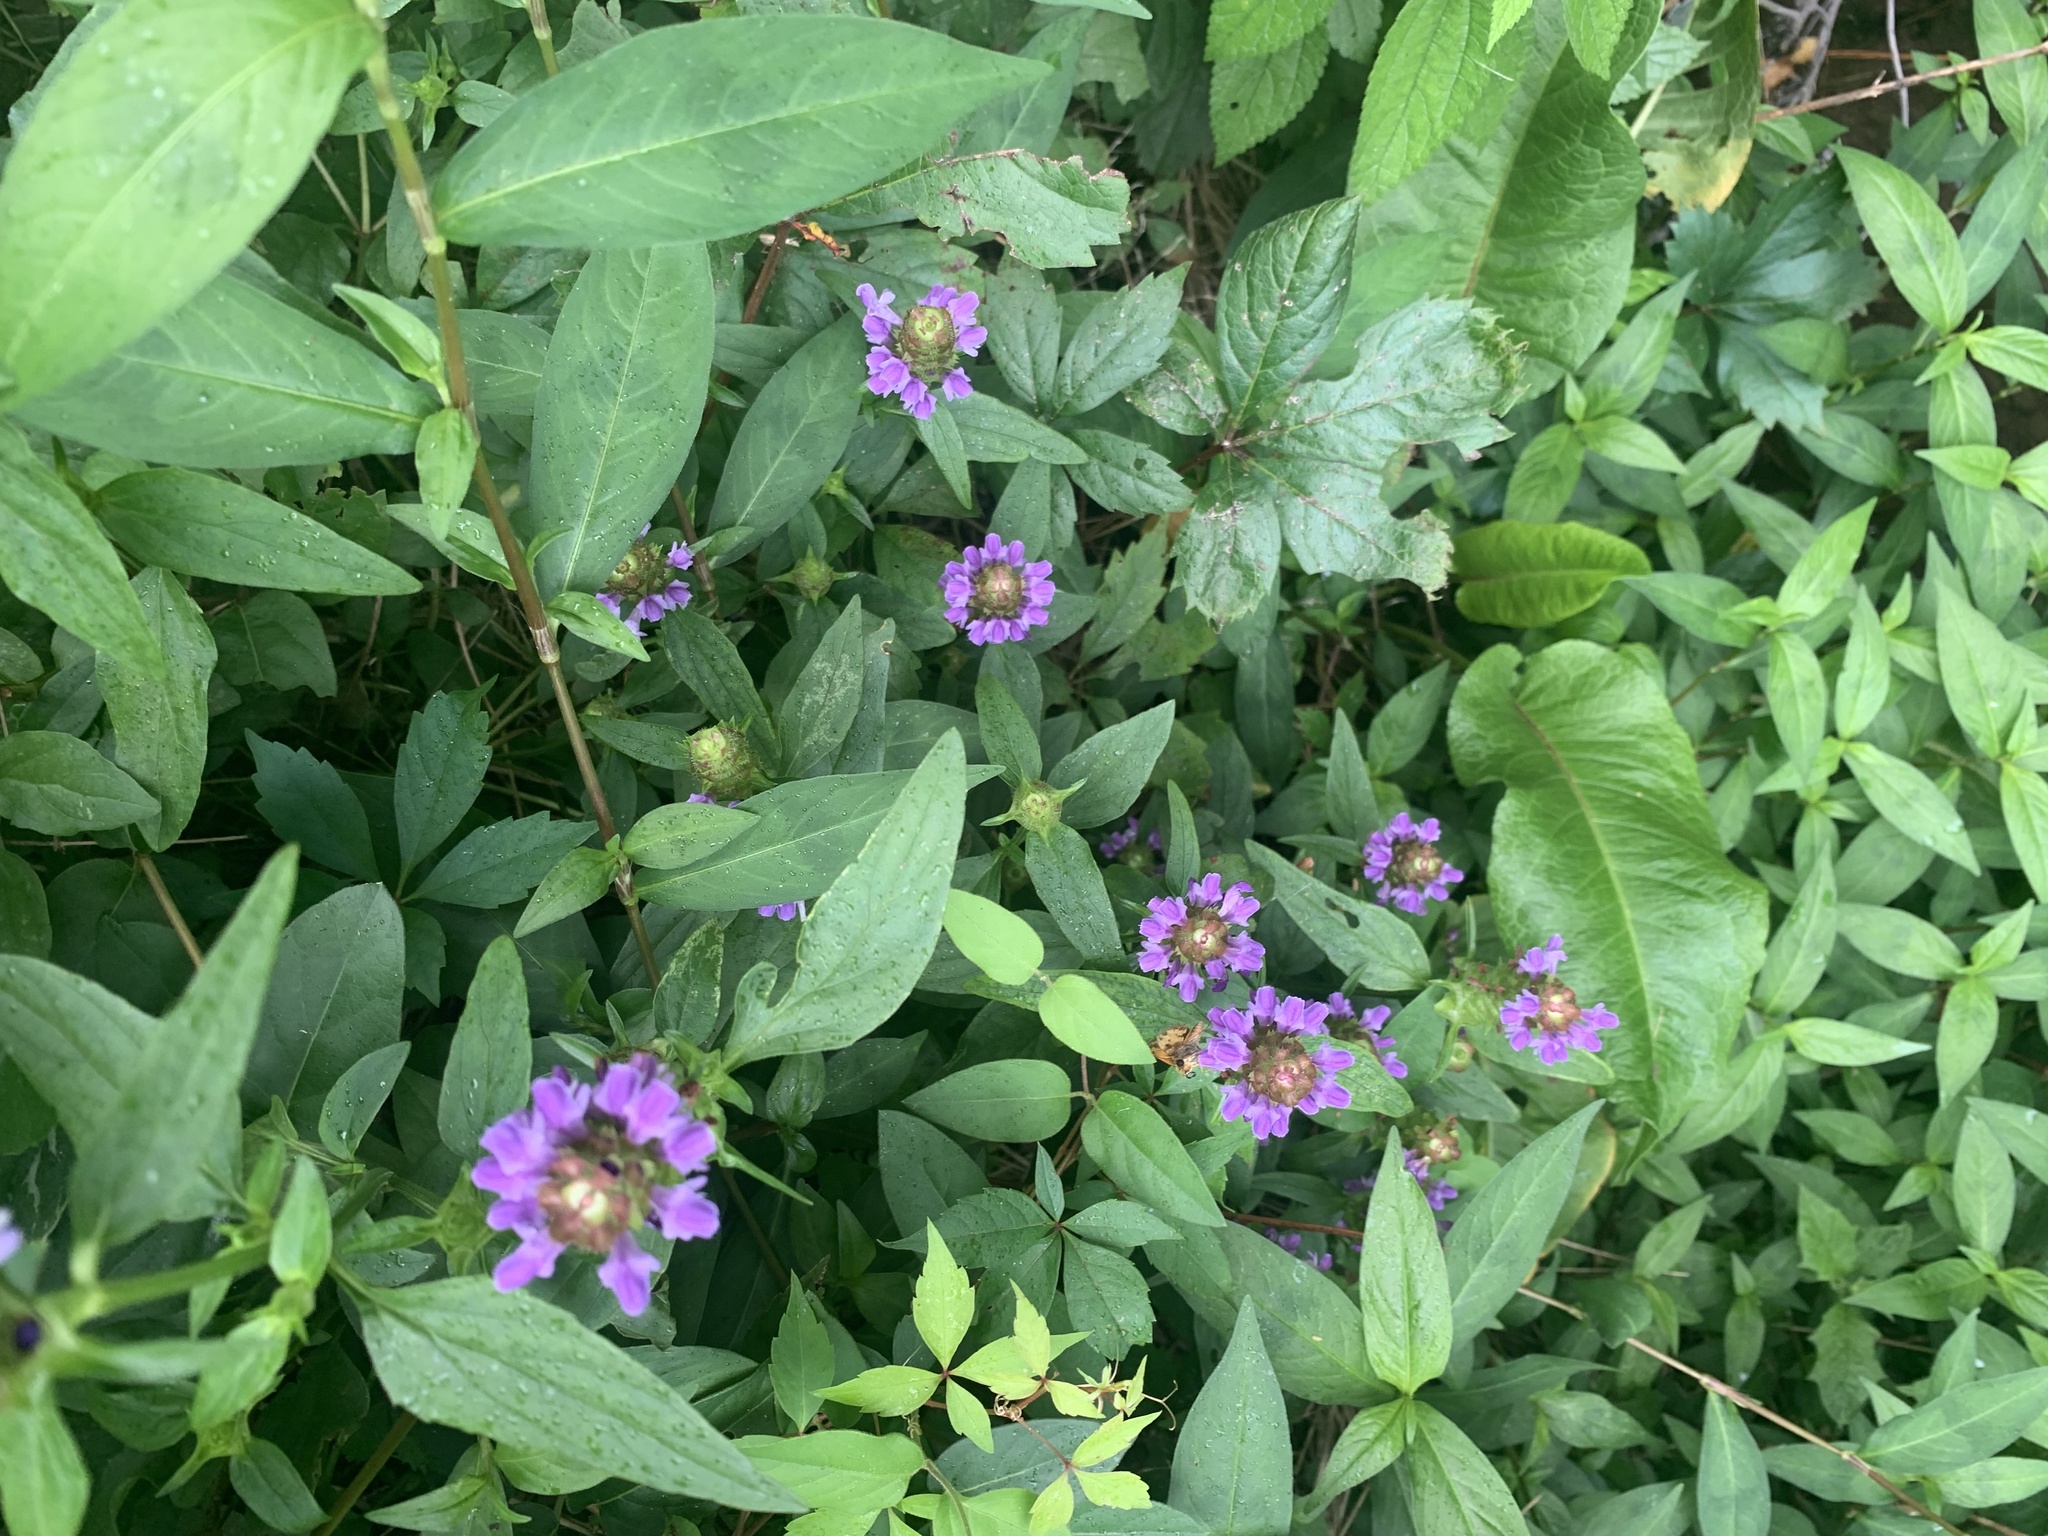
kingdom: Plantae
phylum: Tracheophyta
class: Magnoliopsida
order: Lamiales
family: Lamiaceae
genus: Prunella
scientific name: Prunella vulgaris
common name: Heal-all
